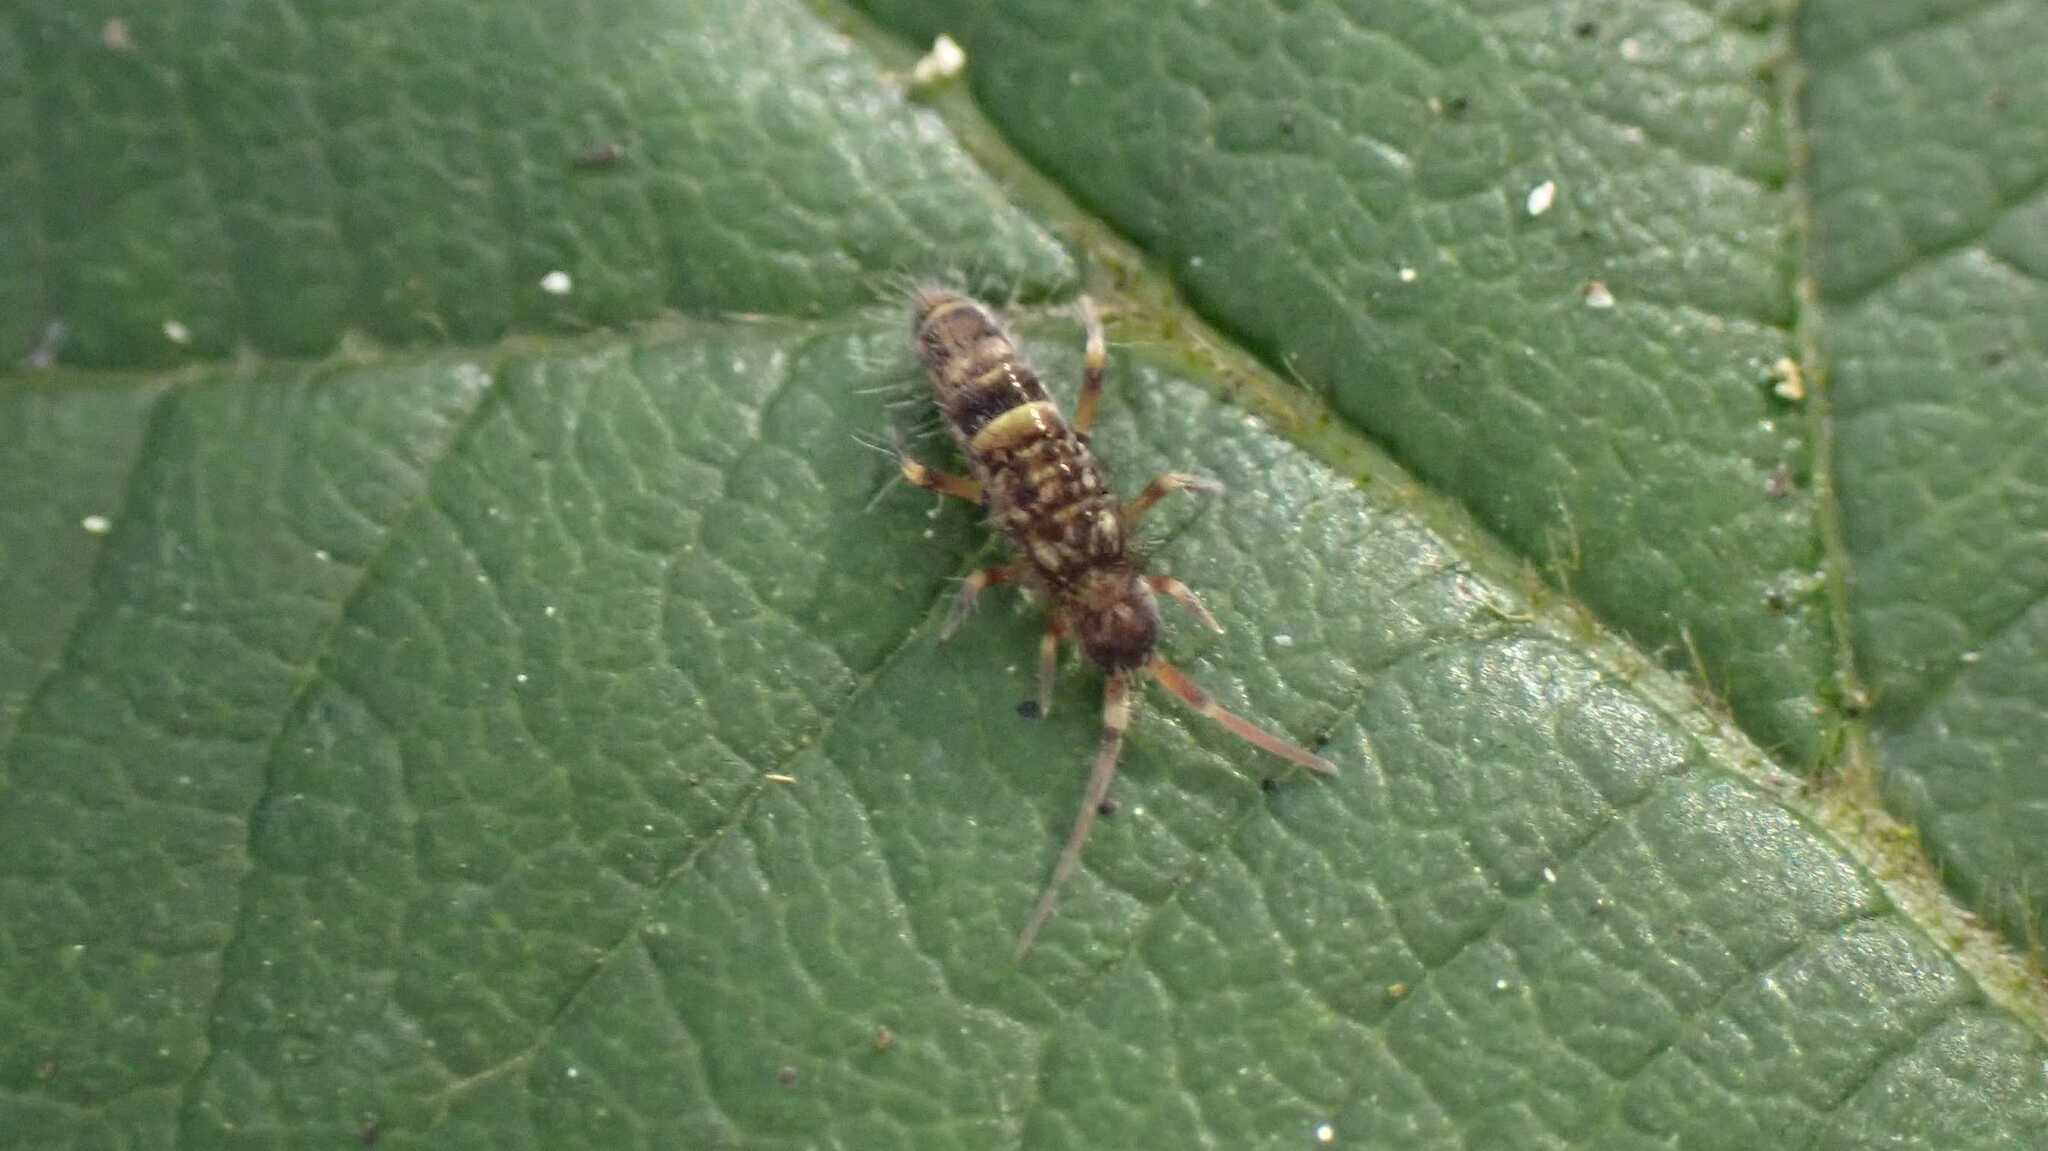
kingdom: Animalia
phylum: Arthropoda
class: Collembola
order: Entomobryomorpha
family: Orchesellidae
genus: Orchesella
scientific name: Orchesella cincta
